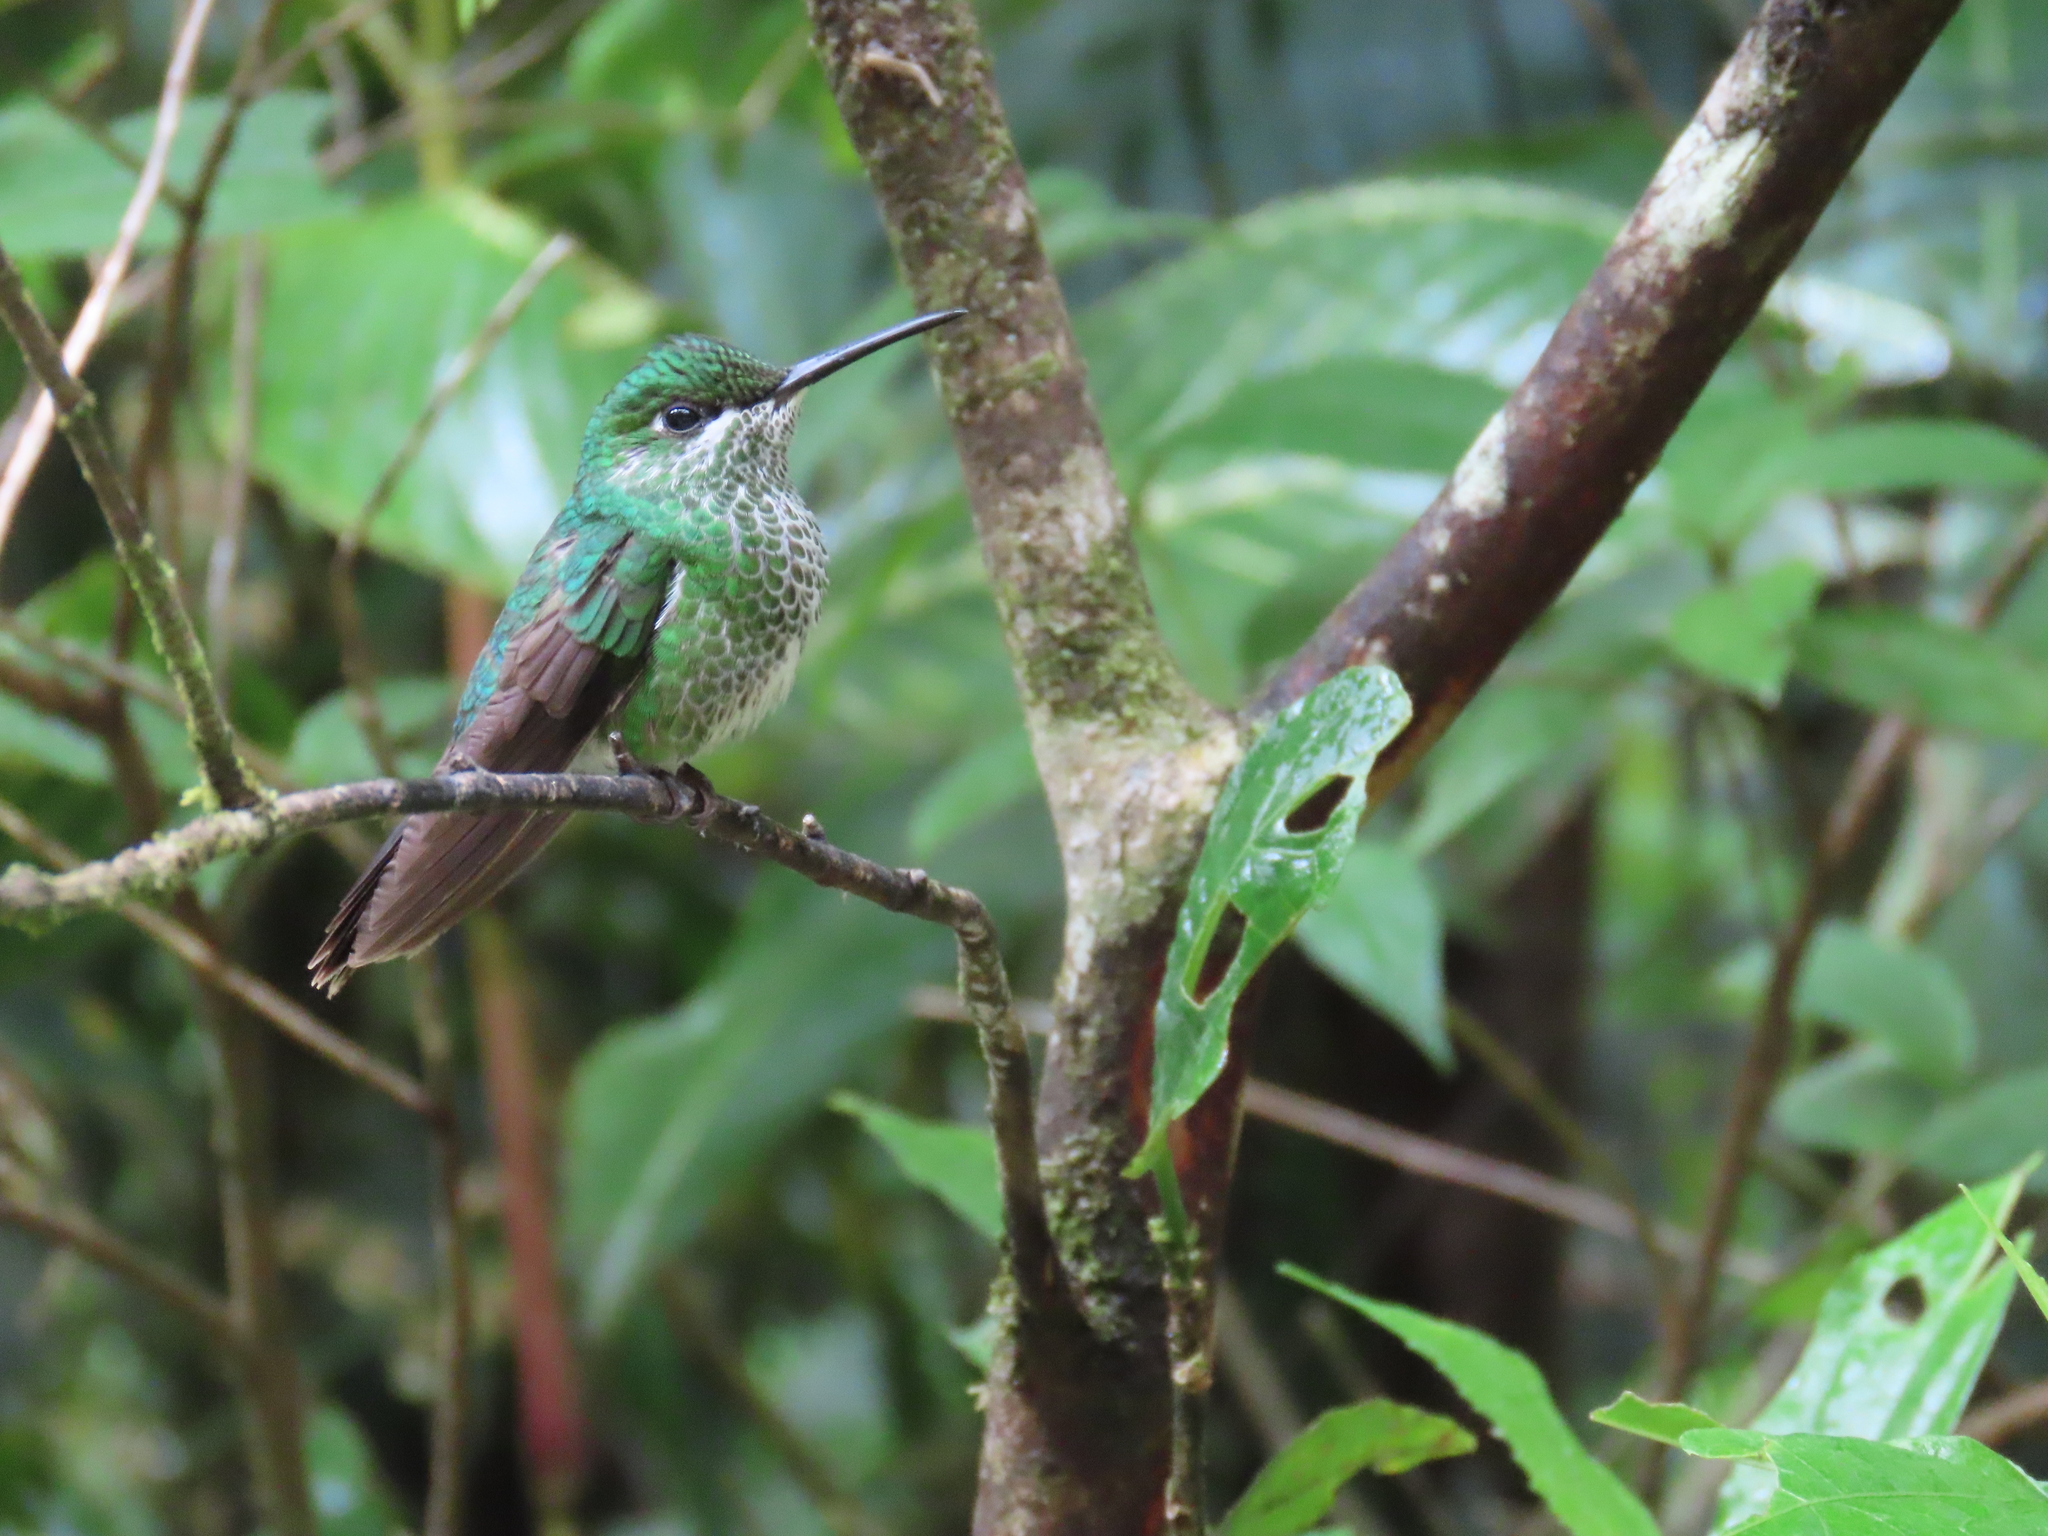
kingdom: Animalia
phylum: Chordata
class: Aves
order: Apodiformes
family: Trochilidae
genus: Heliodoxa
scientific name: Heliodoxa jacula
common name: Green-crowned brilliant
